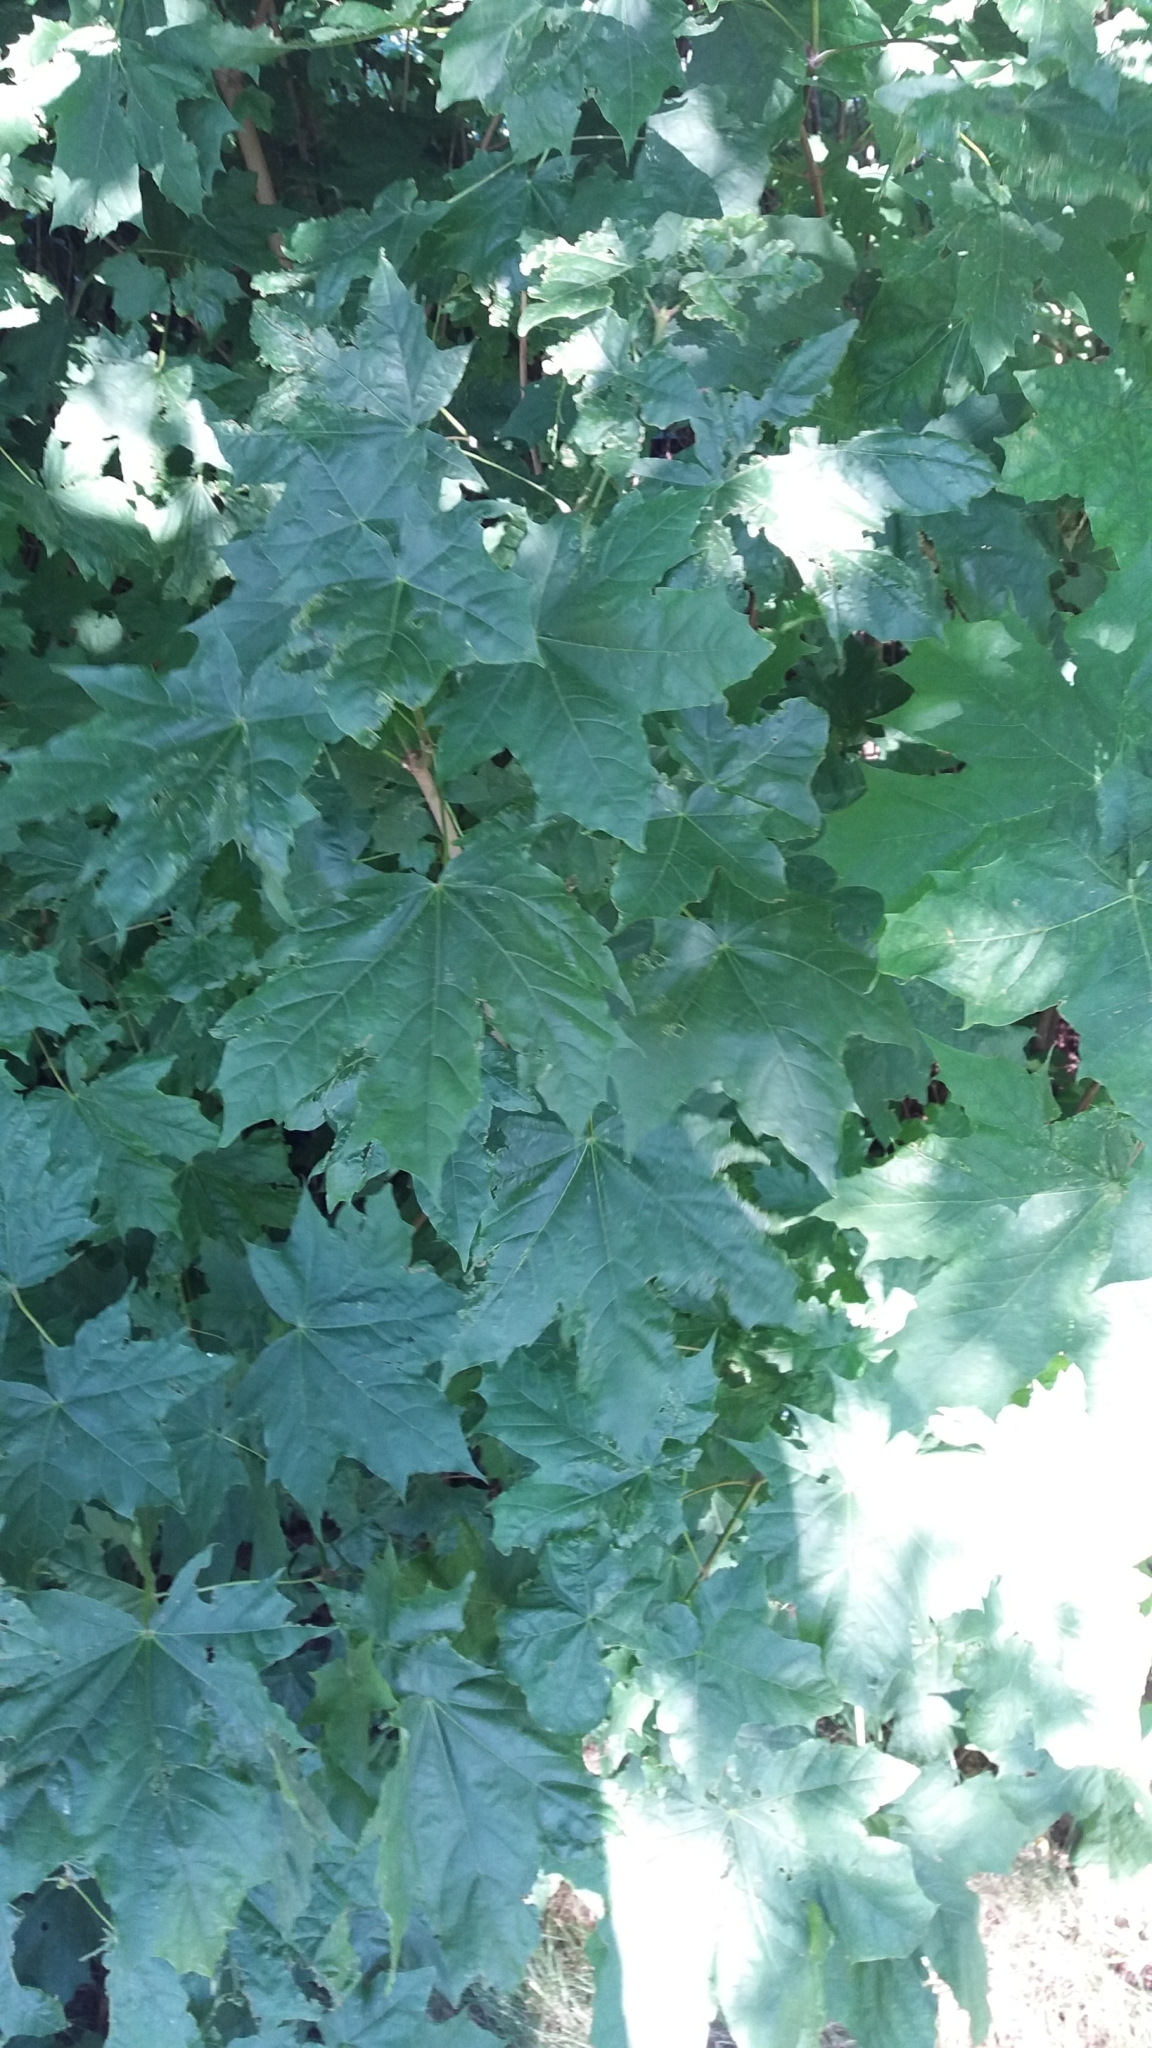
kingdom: Plantae
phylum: Tracheophyta
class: Magnoliopsida
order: Sapindales
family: Sapindaceae
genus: Acer
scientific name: Acer platanoides
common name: Norway maple
